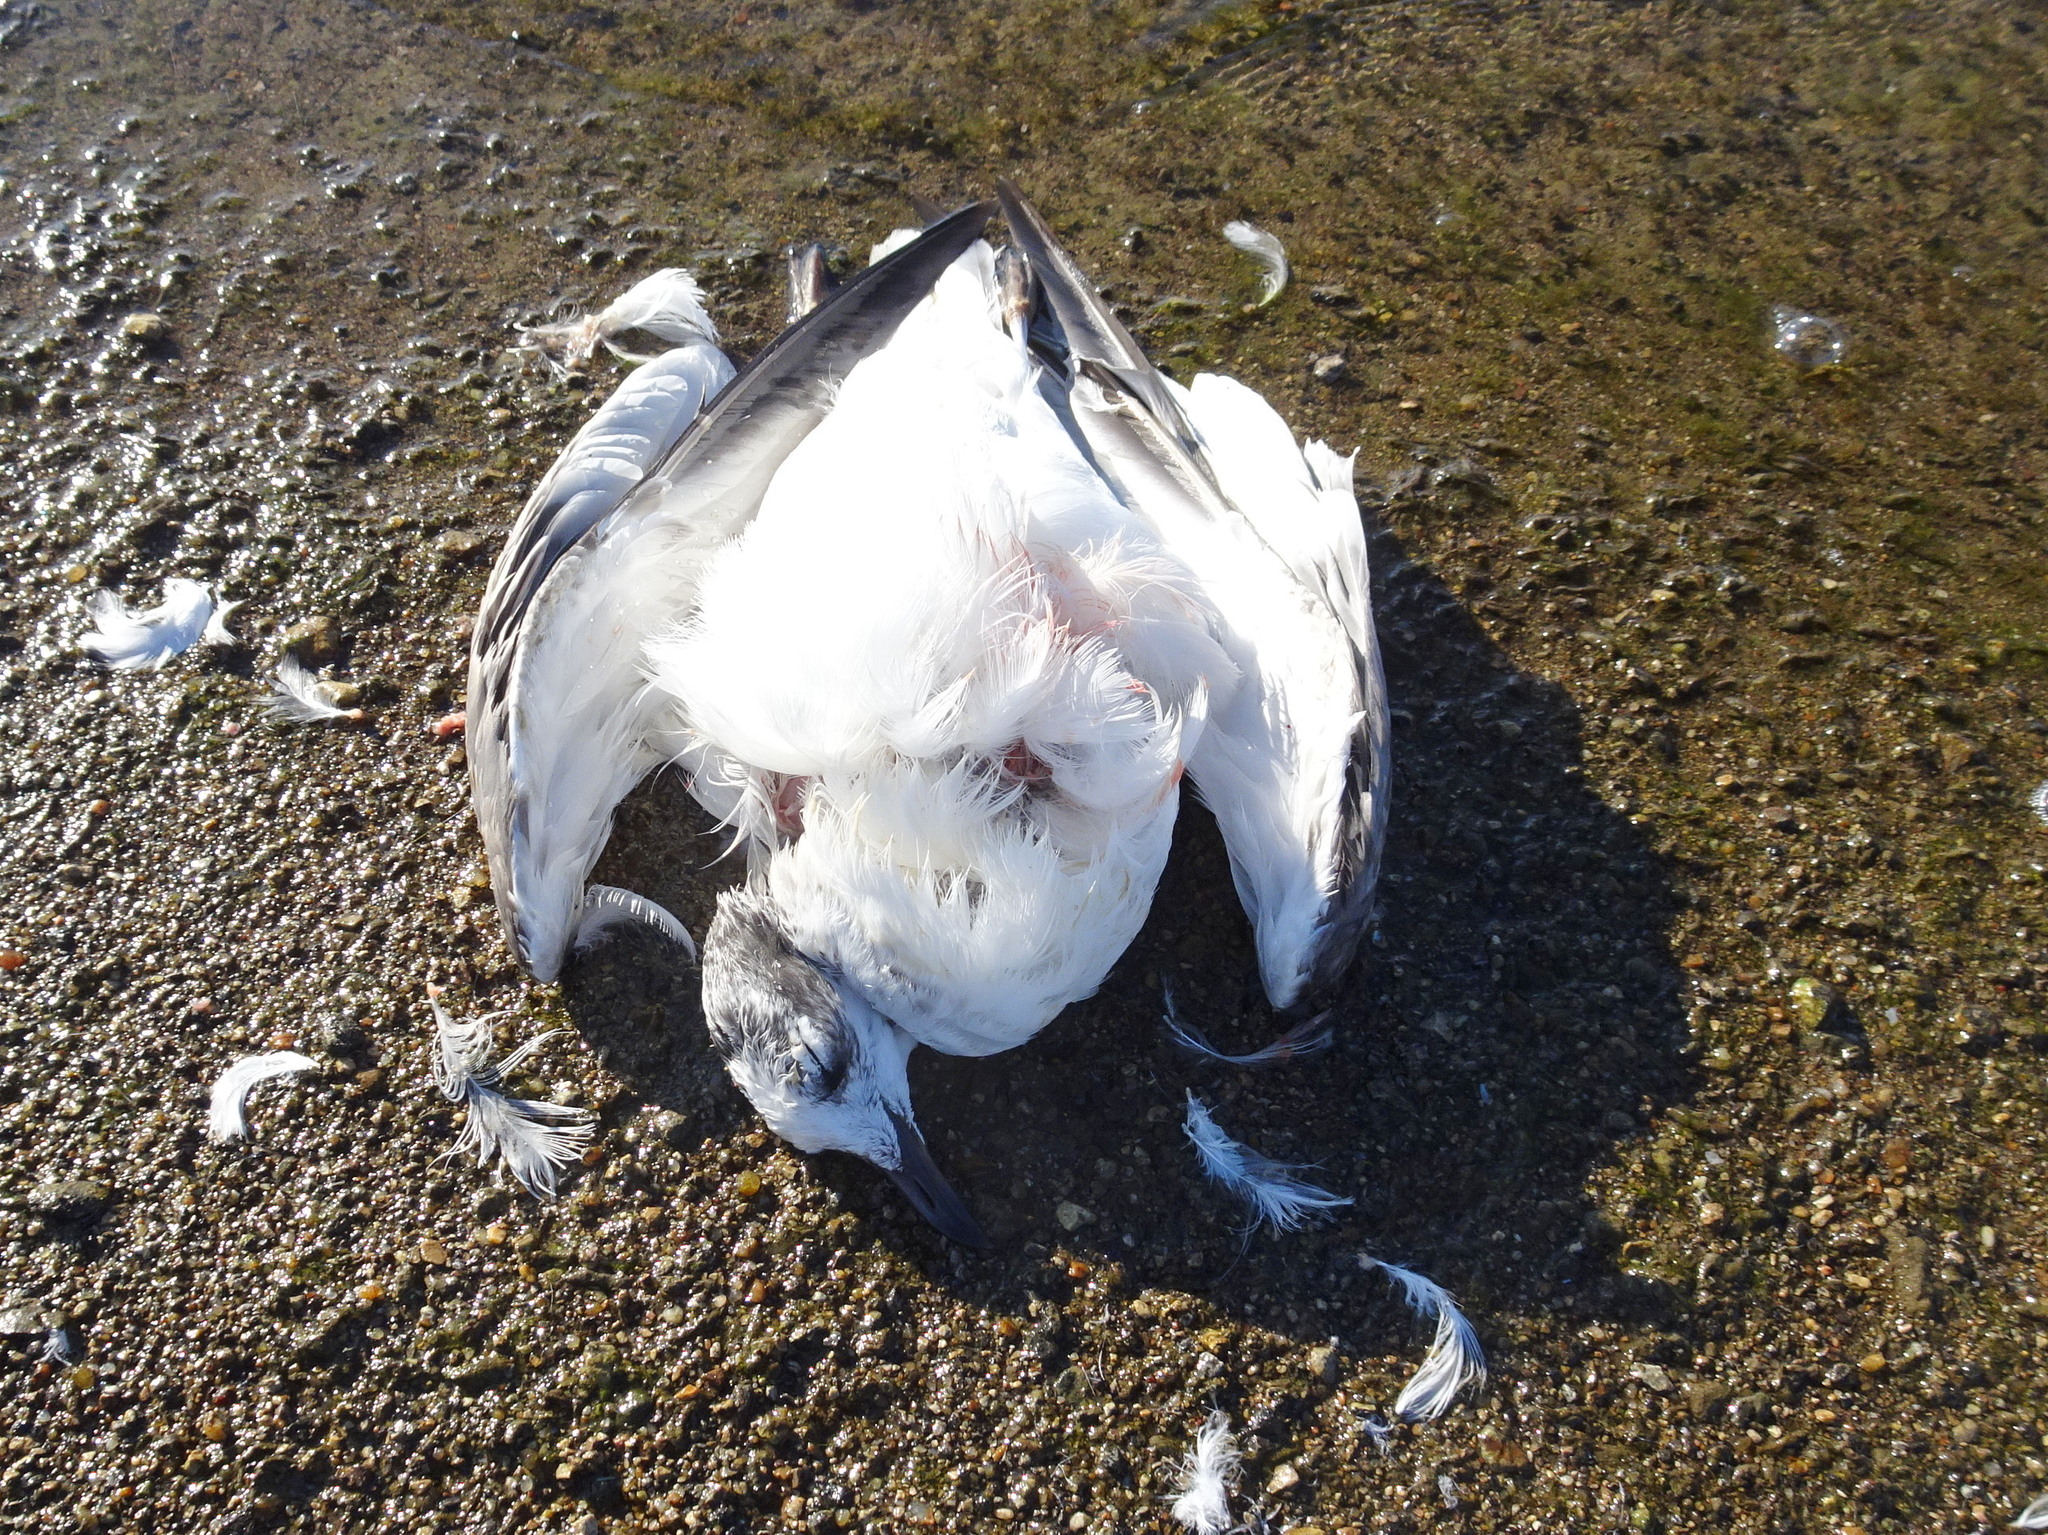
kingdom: Animalia
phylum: Chordata
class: Aves
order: Charadriiformes
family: Laridae
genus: Leucophaeus
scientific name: Leucophaeus pipixcan
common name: Franklin's gull
